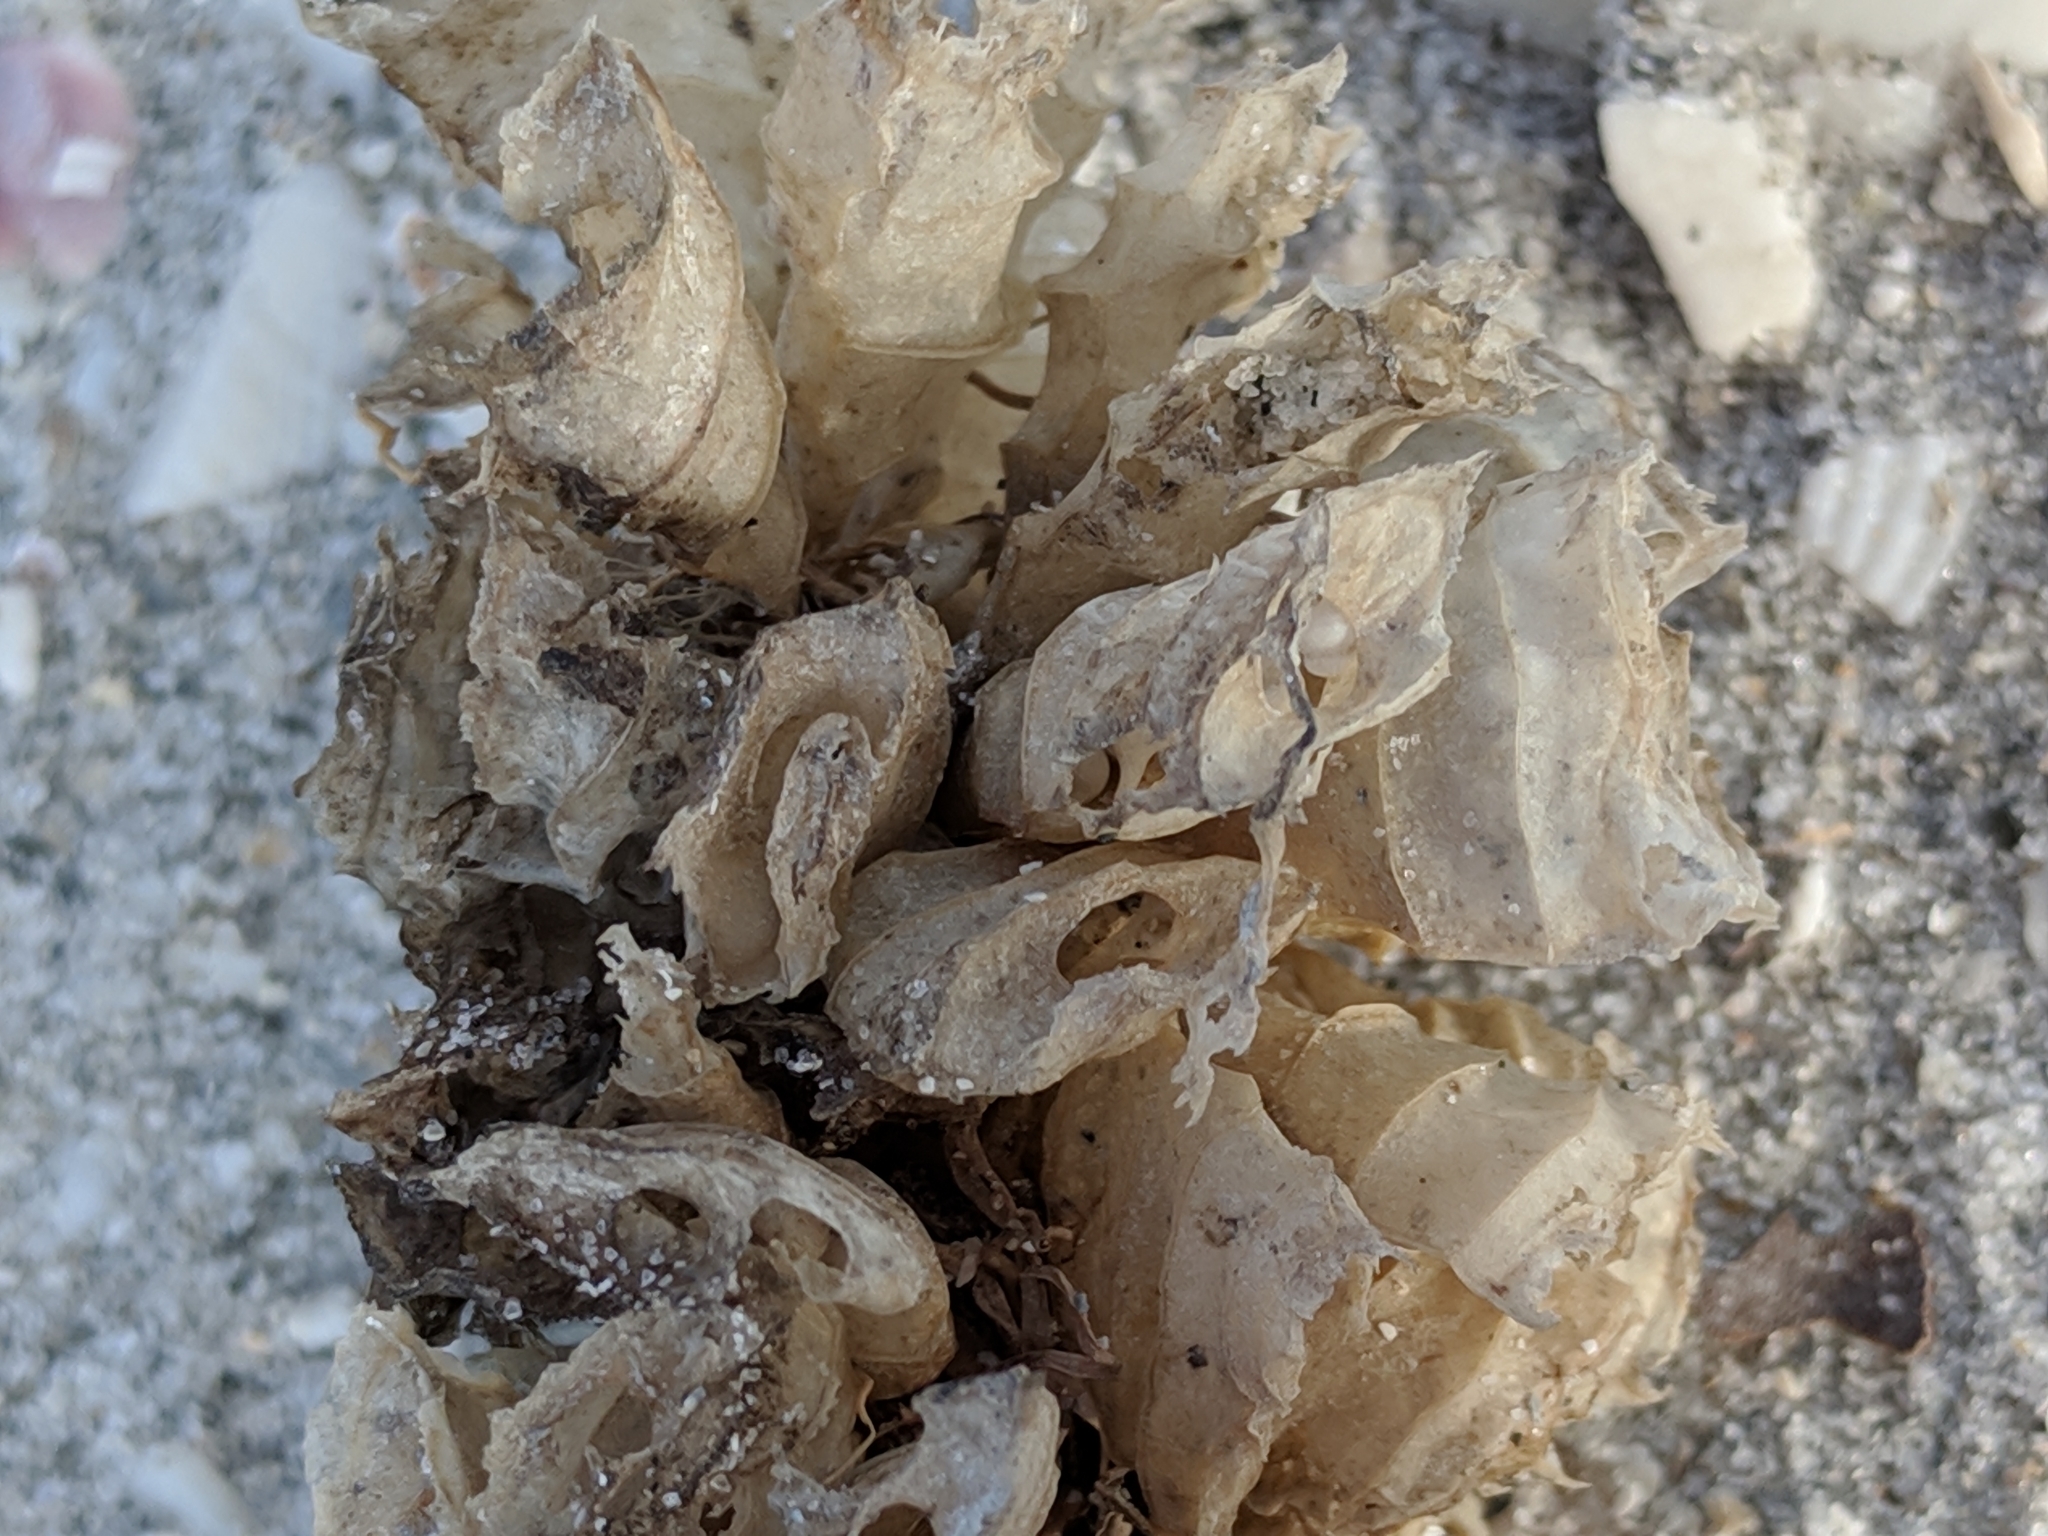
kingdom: Animalia
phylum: Mollusca
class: Gastropoda
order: Neogastropoda
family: Fasciolariidae
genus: Triplofusus
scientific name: Triplofusus giganteus
